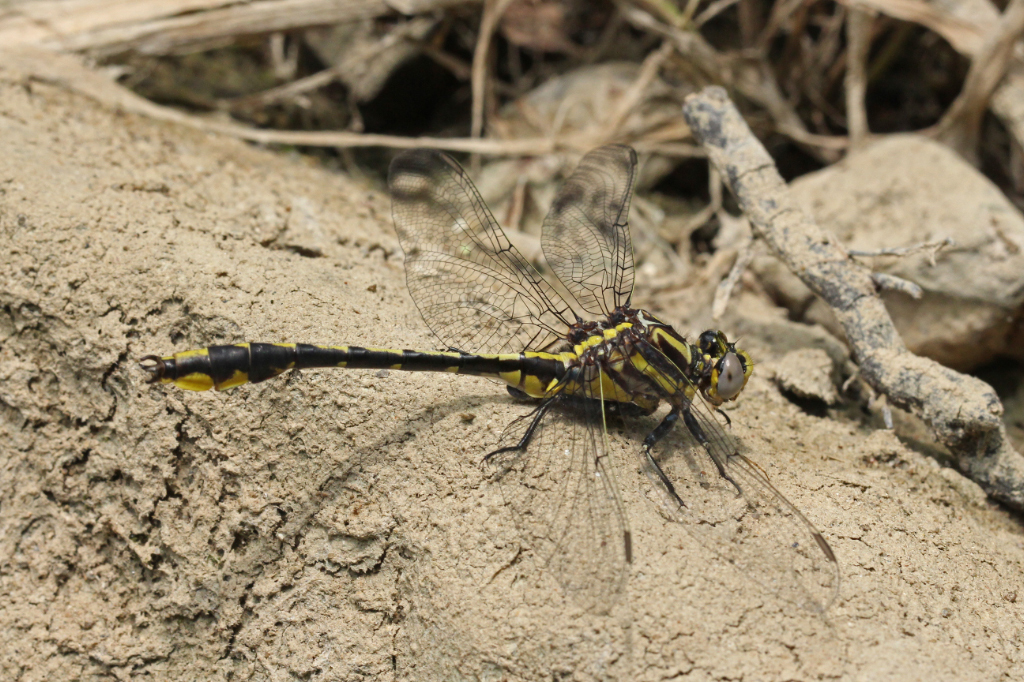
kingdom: Animalia
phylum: Arthropoda
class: Insecta
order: Odonata
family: Gomphidae
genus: Phanogomphus
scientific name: Phanogomphus graslinellus
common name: Pronghorn clubtail
